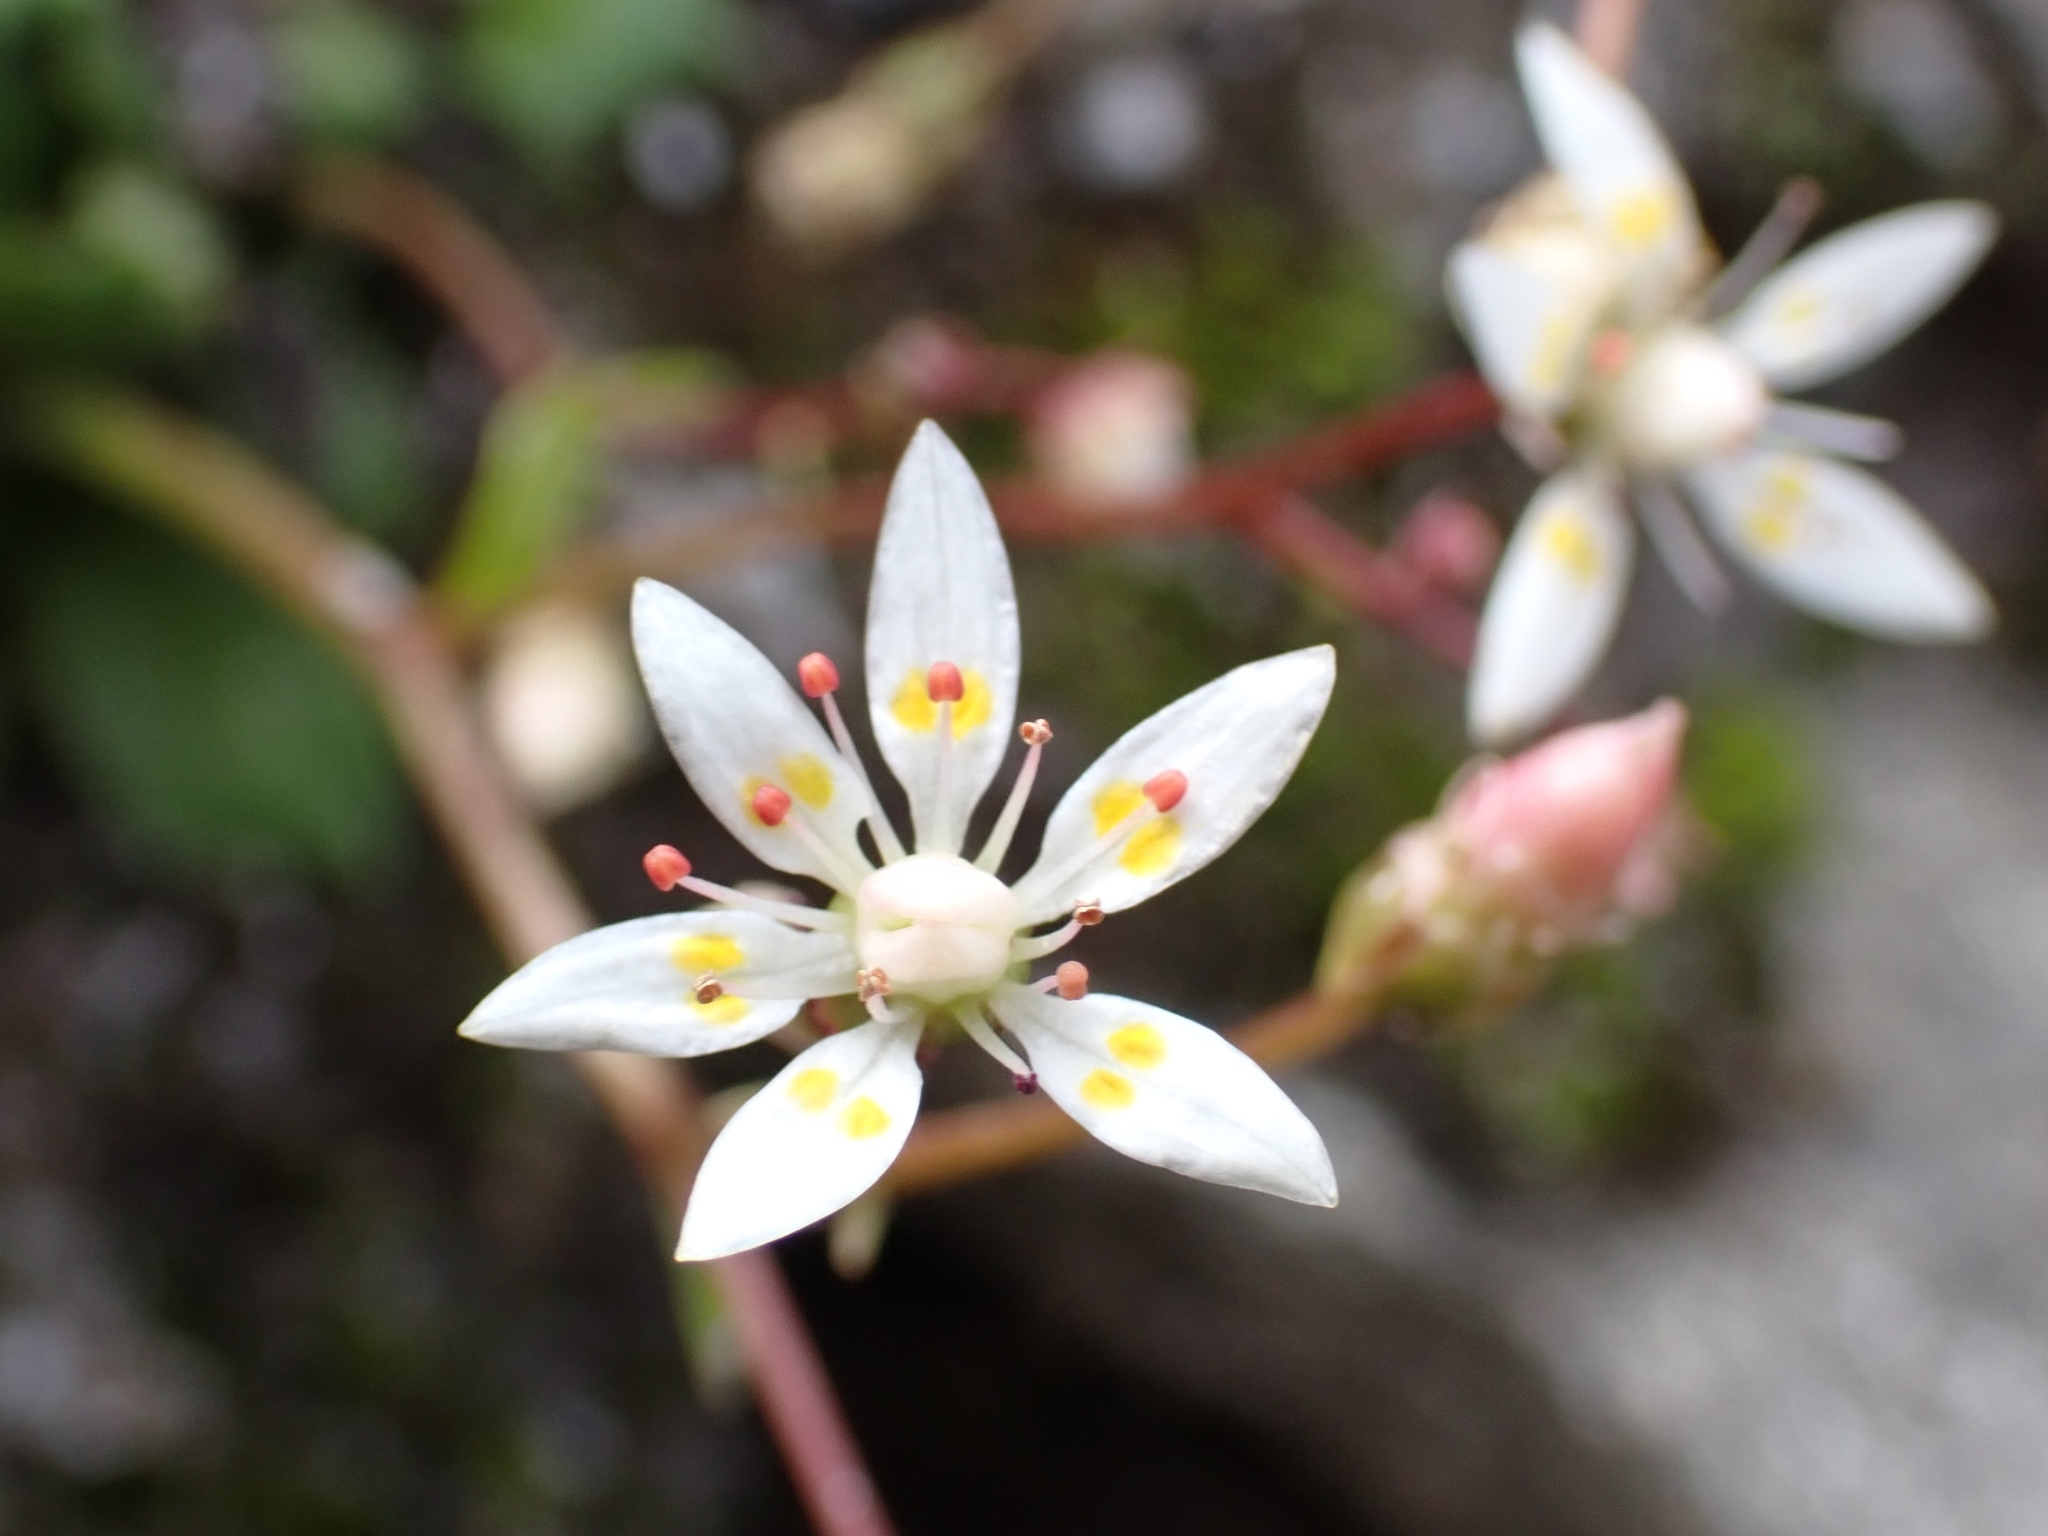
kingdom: Plantae
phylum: Tracheophyta
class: Magnoliopsida
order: Saxifragales
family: Saxifragaceae
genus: Micranthes
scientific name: Micranthes stellaris
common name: Starry saxifrage
